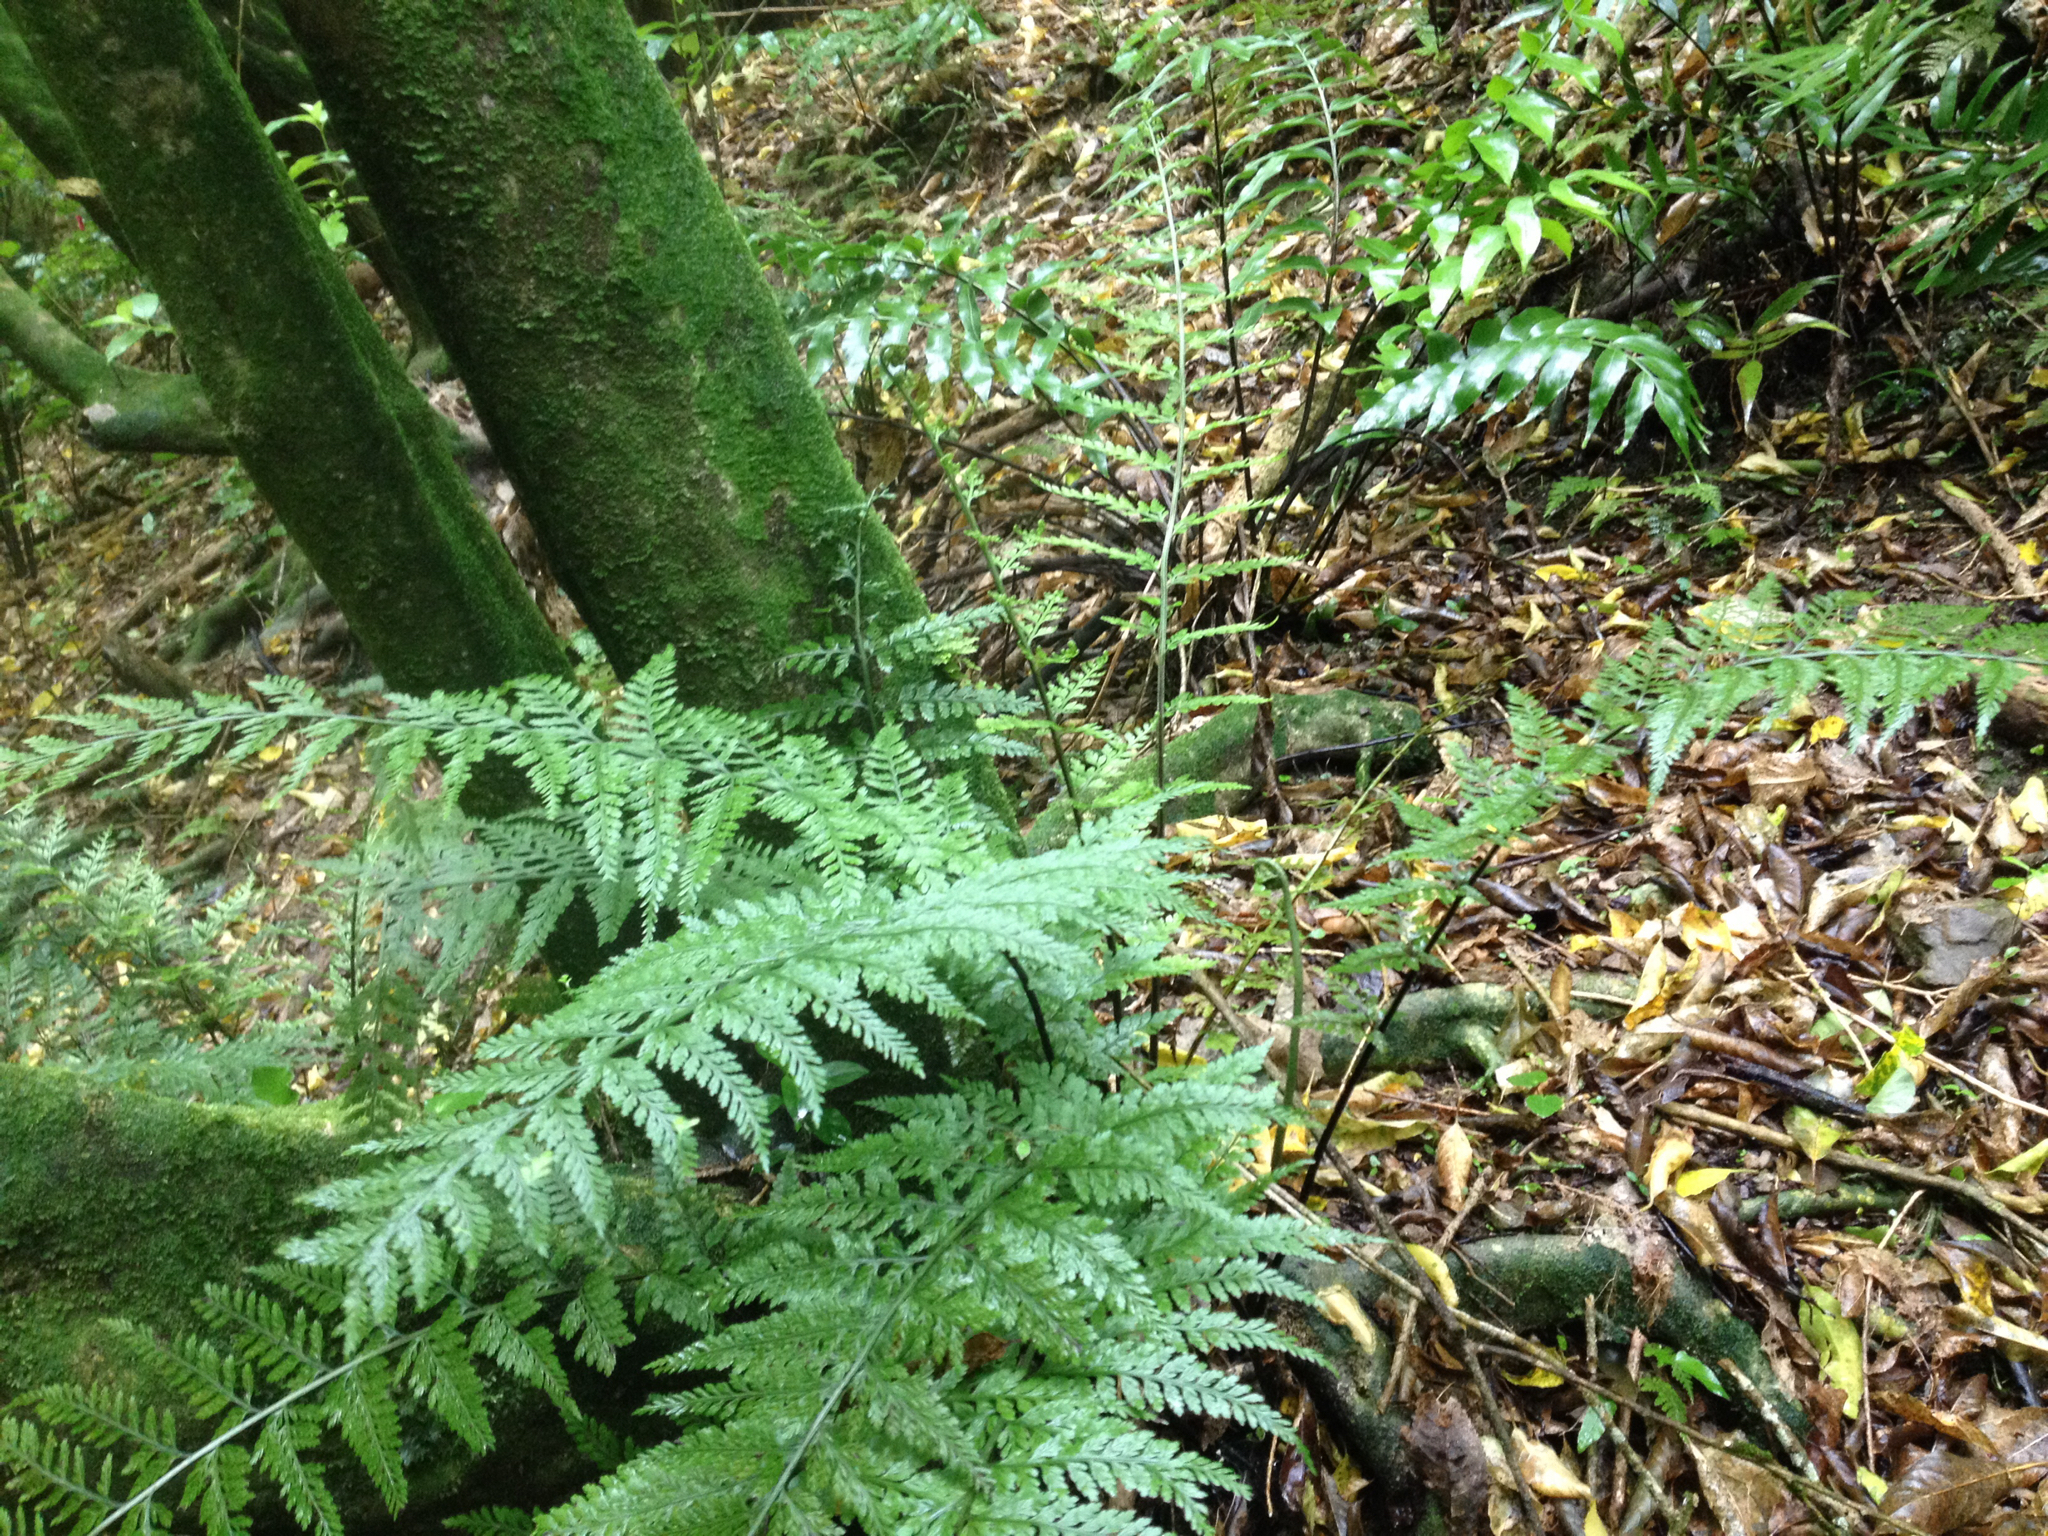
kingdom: Plantae
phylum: Tracheophyta
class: Polypodiopsida
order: Polypodiales
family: Aspleniaceae
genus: Asplenium
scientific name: Asplenium bulbiferum
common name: Mother fern
